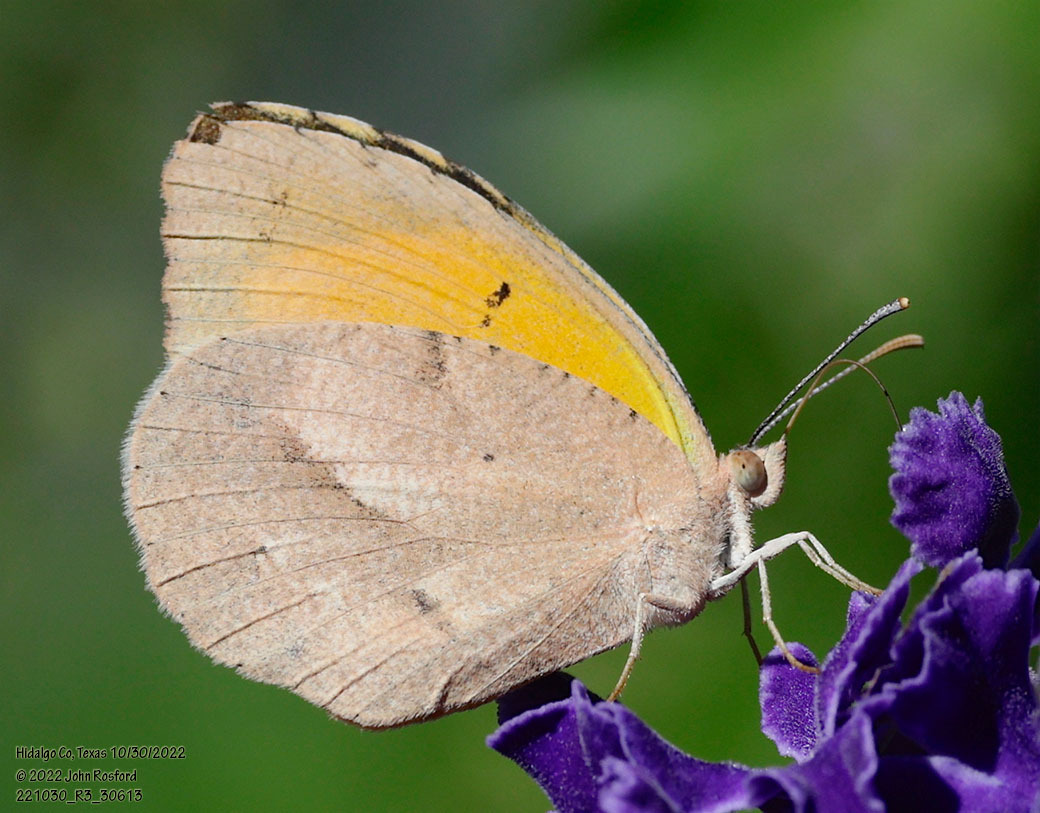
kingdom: Animalia
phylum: Arthropoda
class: Insecta
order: Lepidoptera
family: Pieridae
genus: Abaeis
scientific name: Abaeis nicippe
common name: Sleepy orange
